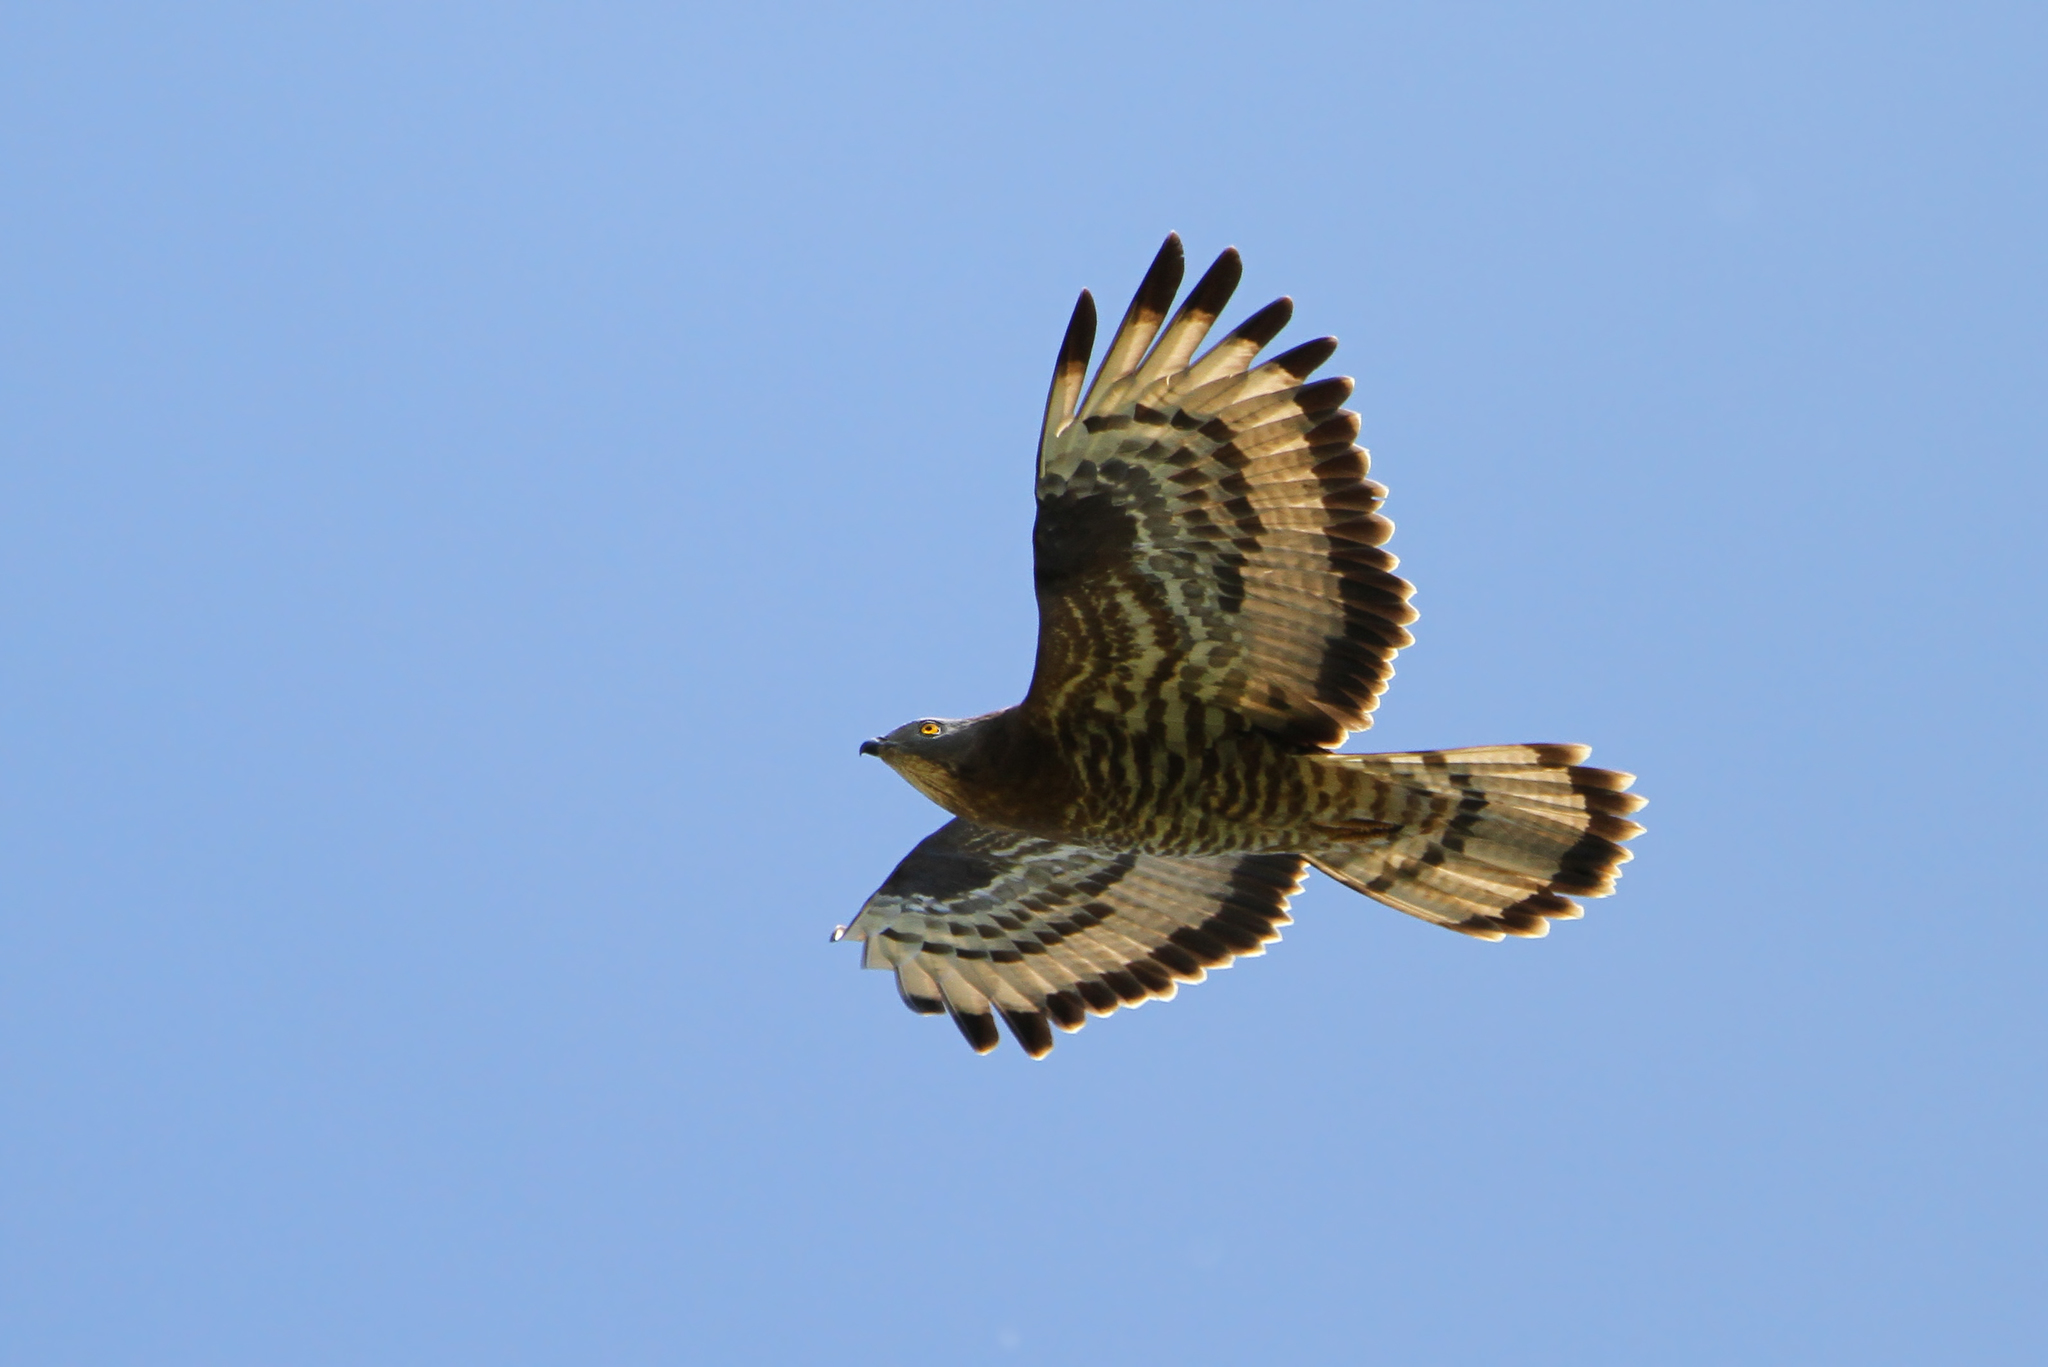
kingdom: Animalia
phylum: Chordata
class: Aves
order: Accipitriformes
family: Accipitridae
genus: Pernis
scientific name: Pernis apivorus
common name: European honey buzzard
